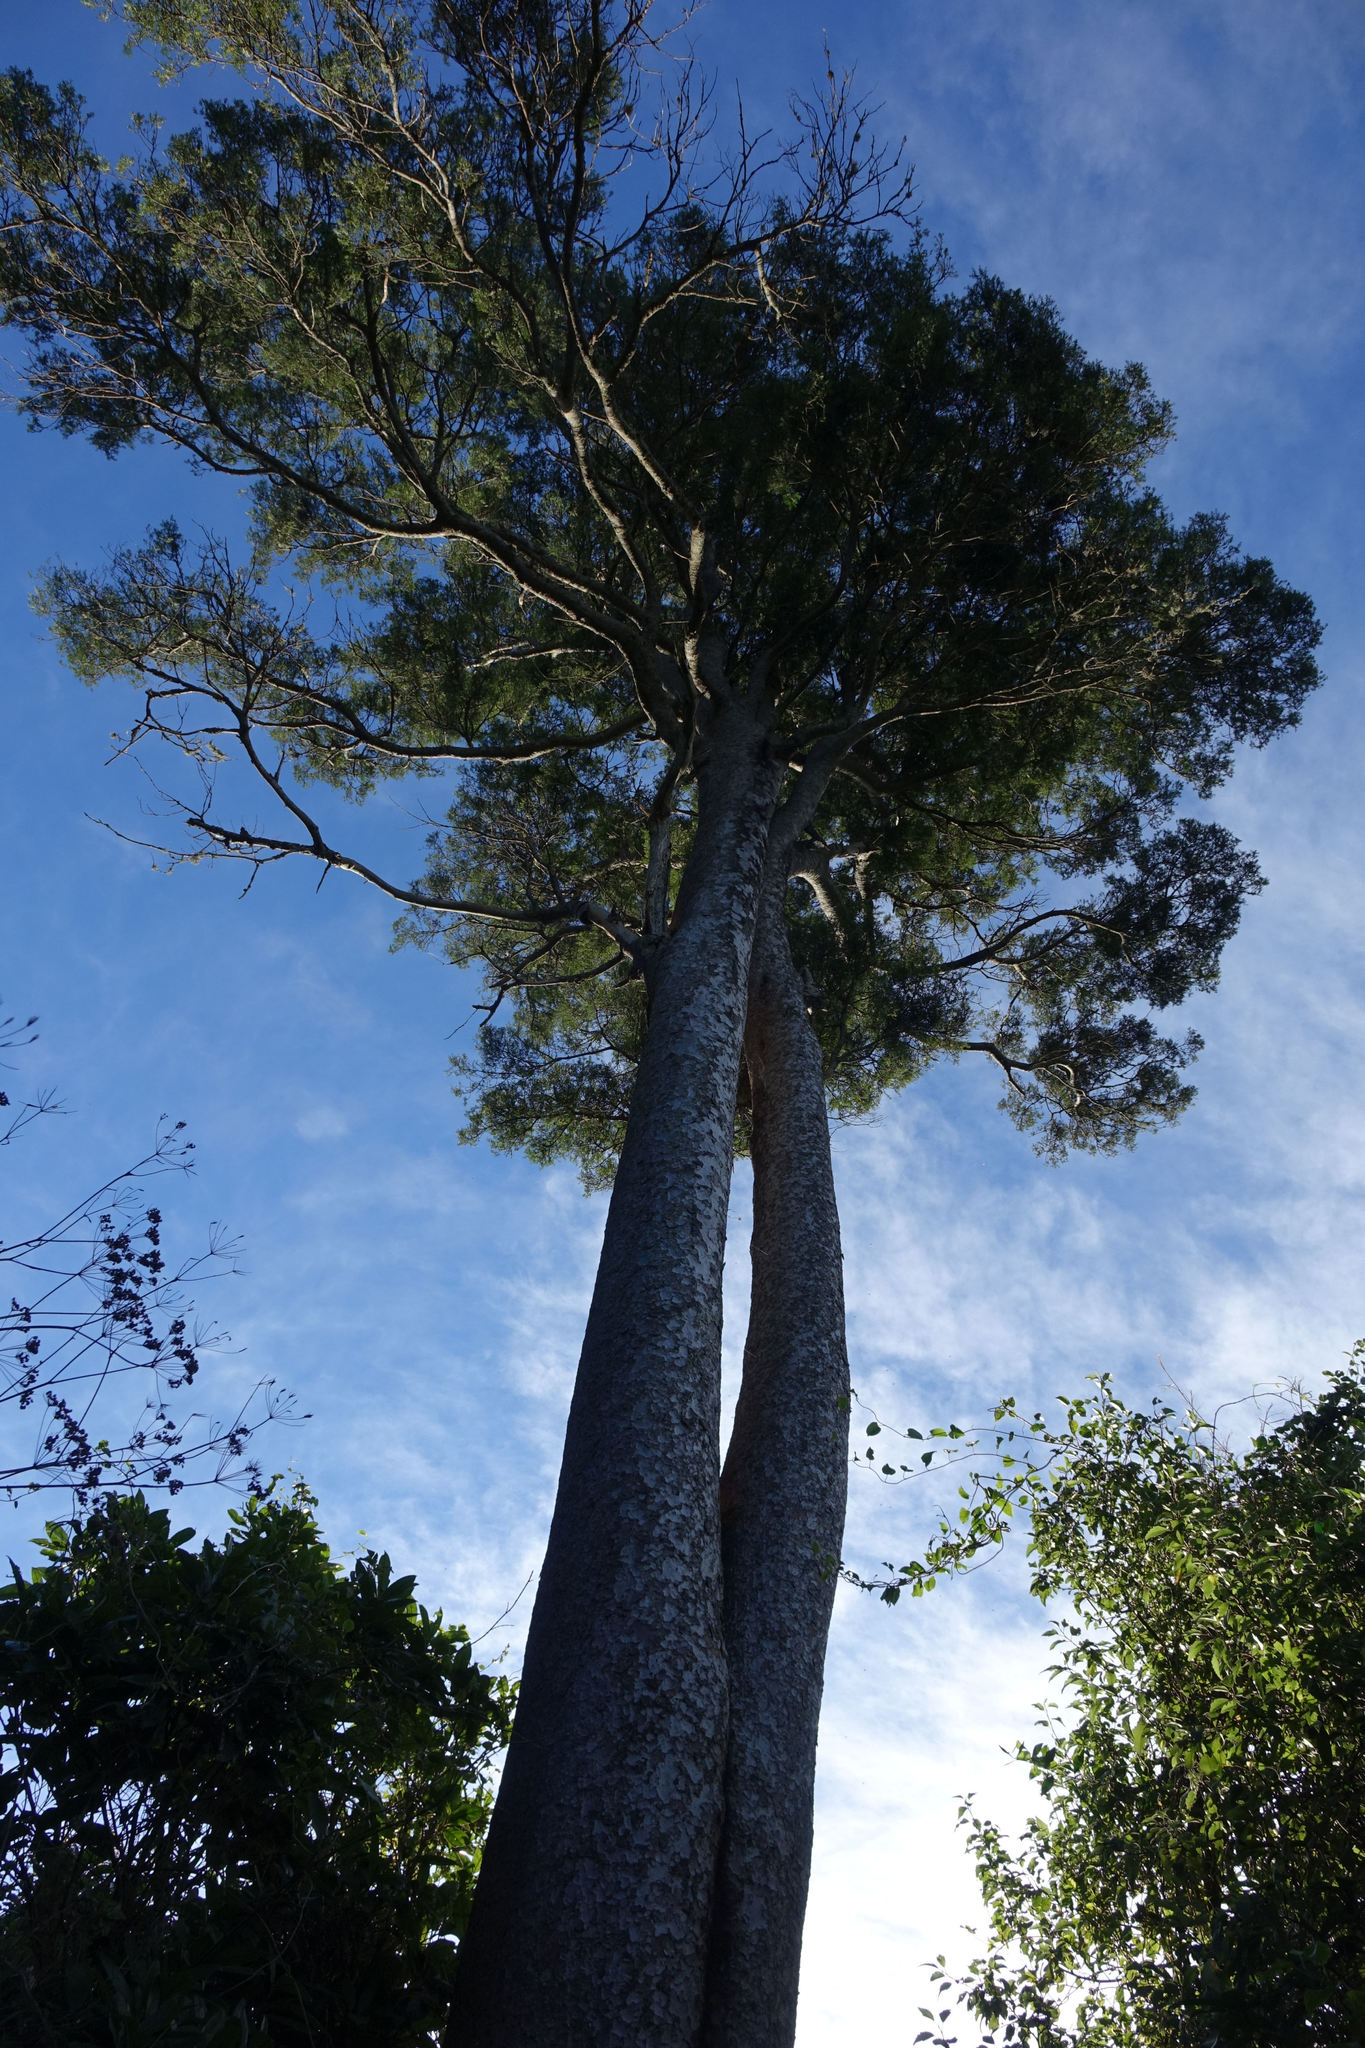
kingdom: Plantae
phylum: Tracheophyta
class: Pinopsida
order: Pinales
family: Podocarpaceae
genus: Prumnopitys
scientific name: Prumnopitys taxifolia
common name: Matai
